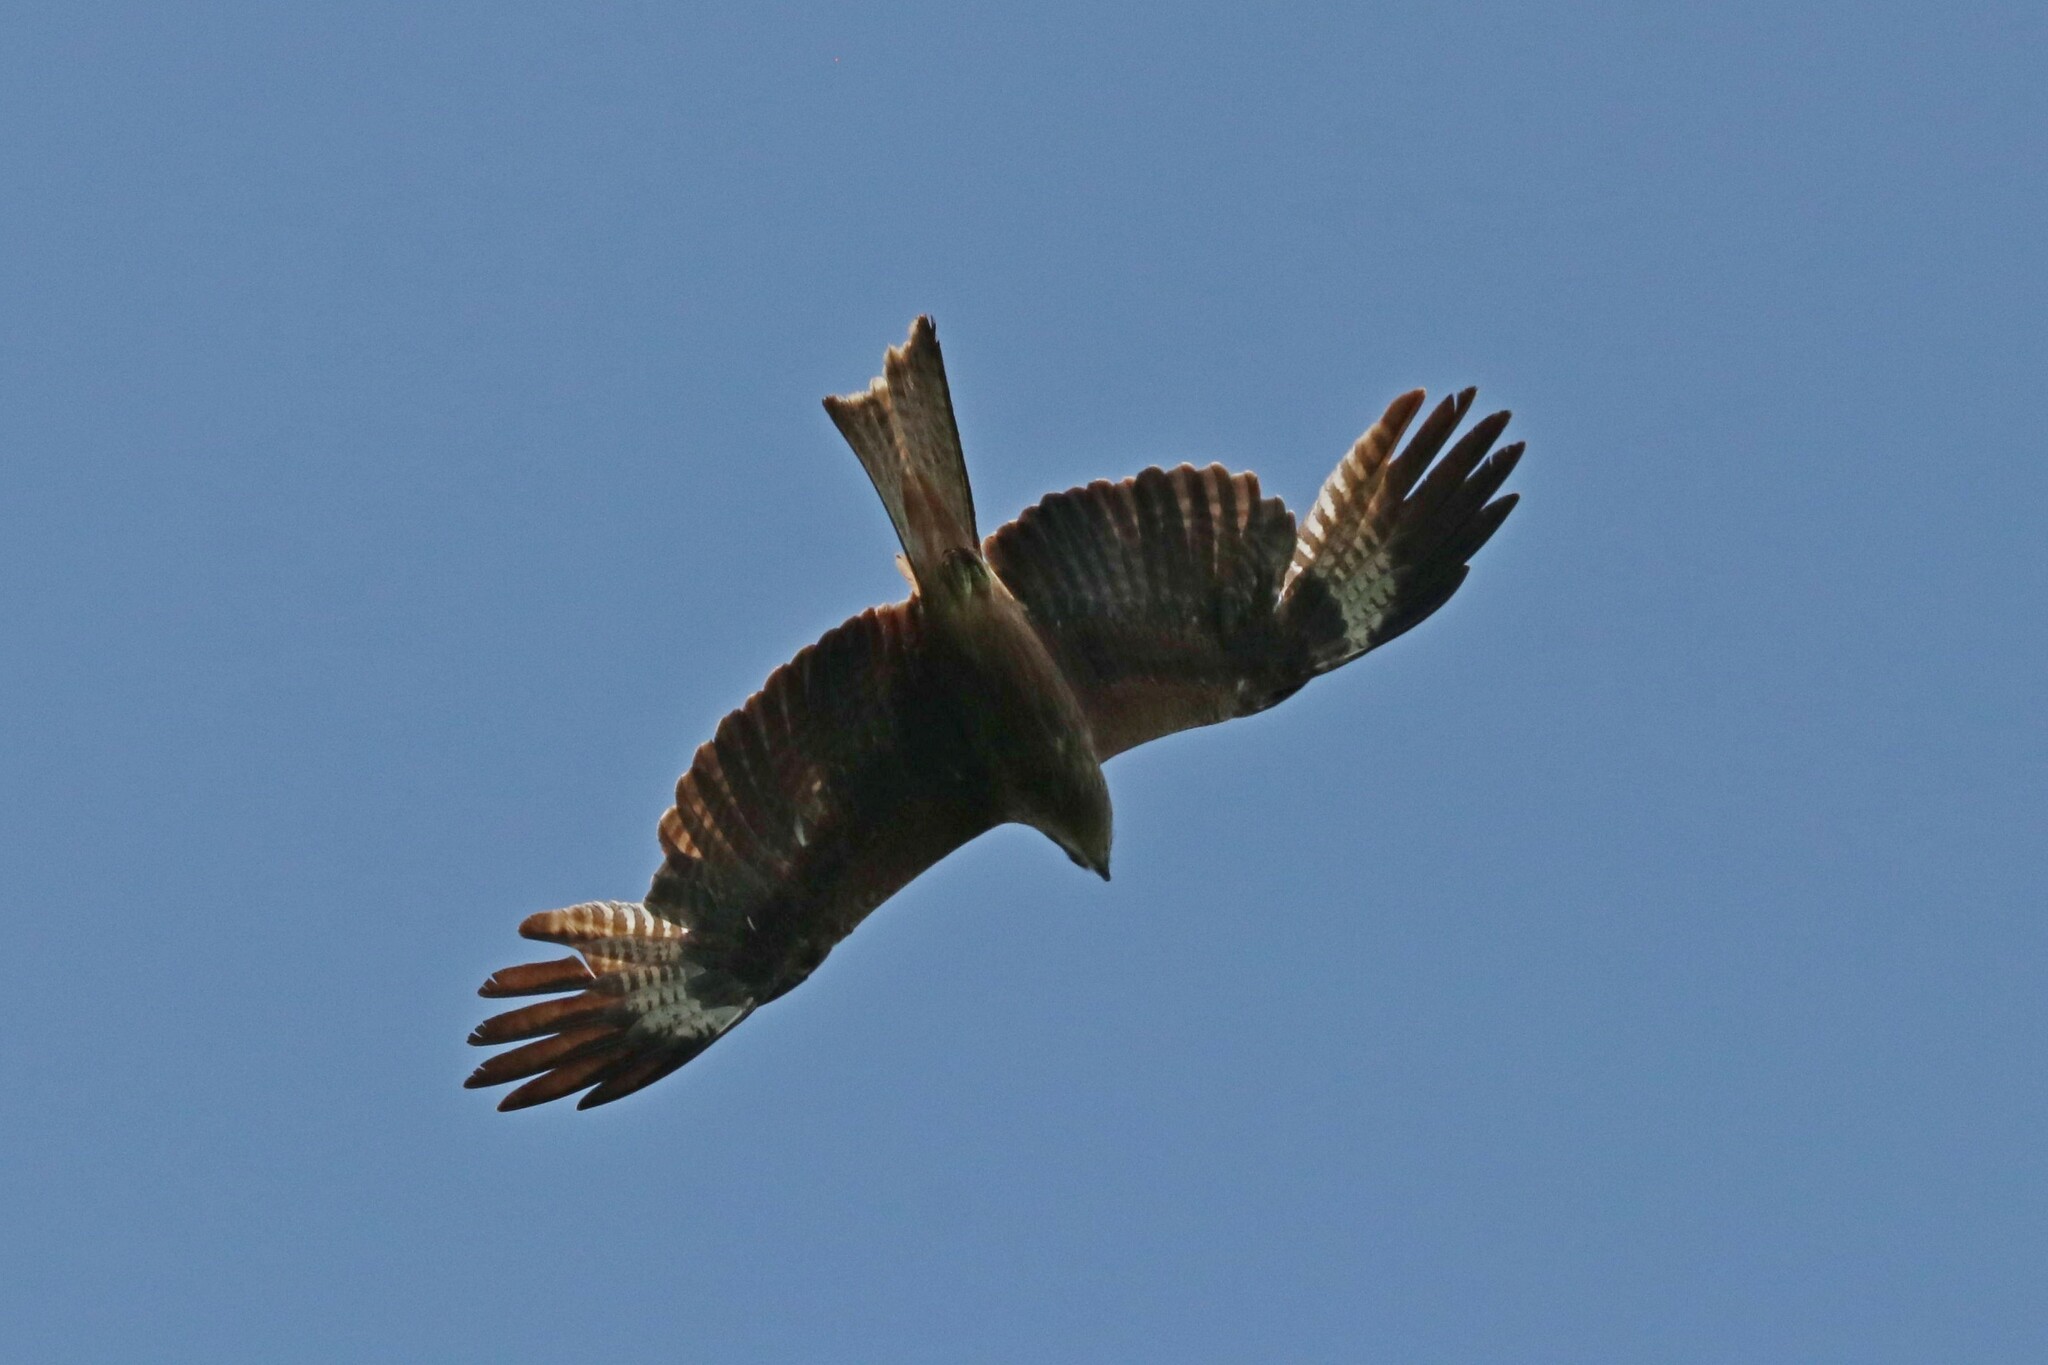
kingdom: Animalia
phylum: Chordata
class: Aves
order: Accipitriformes
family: Accipitridae
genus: Milvus
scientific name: Milvus migrans
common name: Black kite
